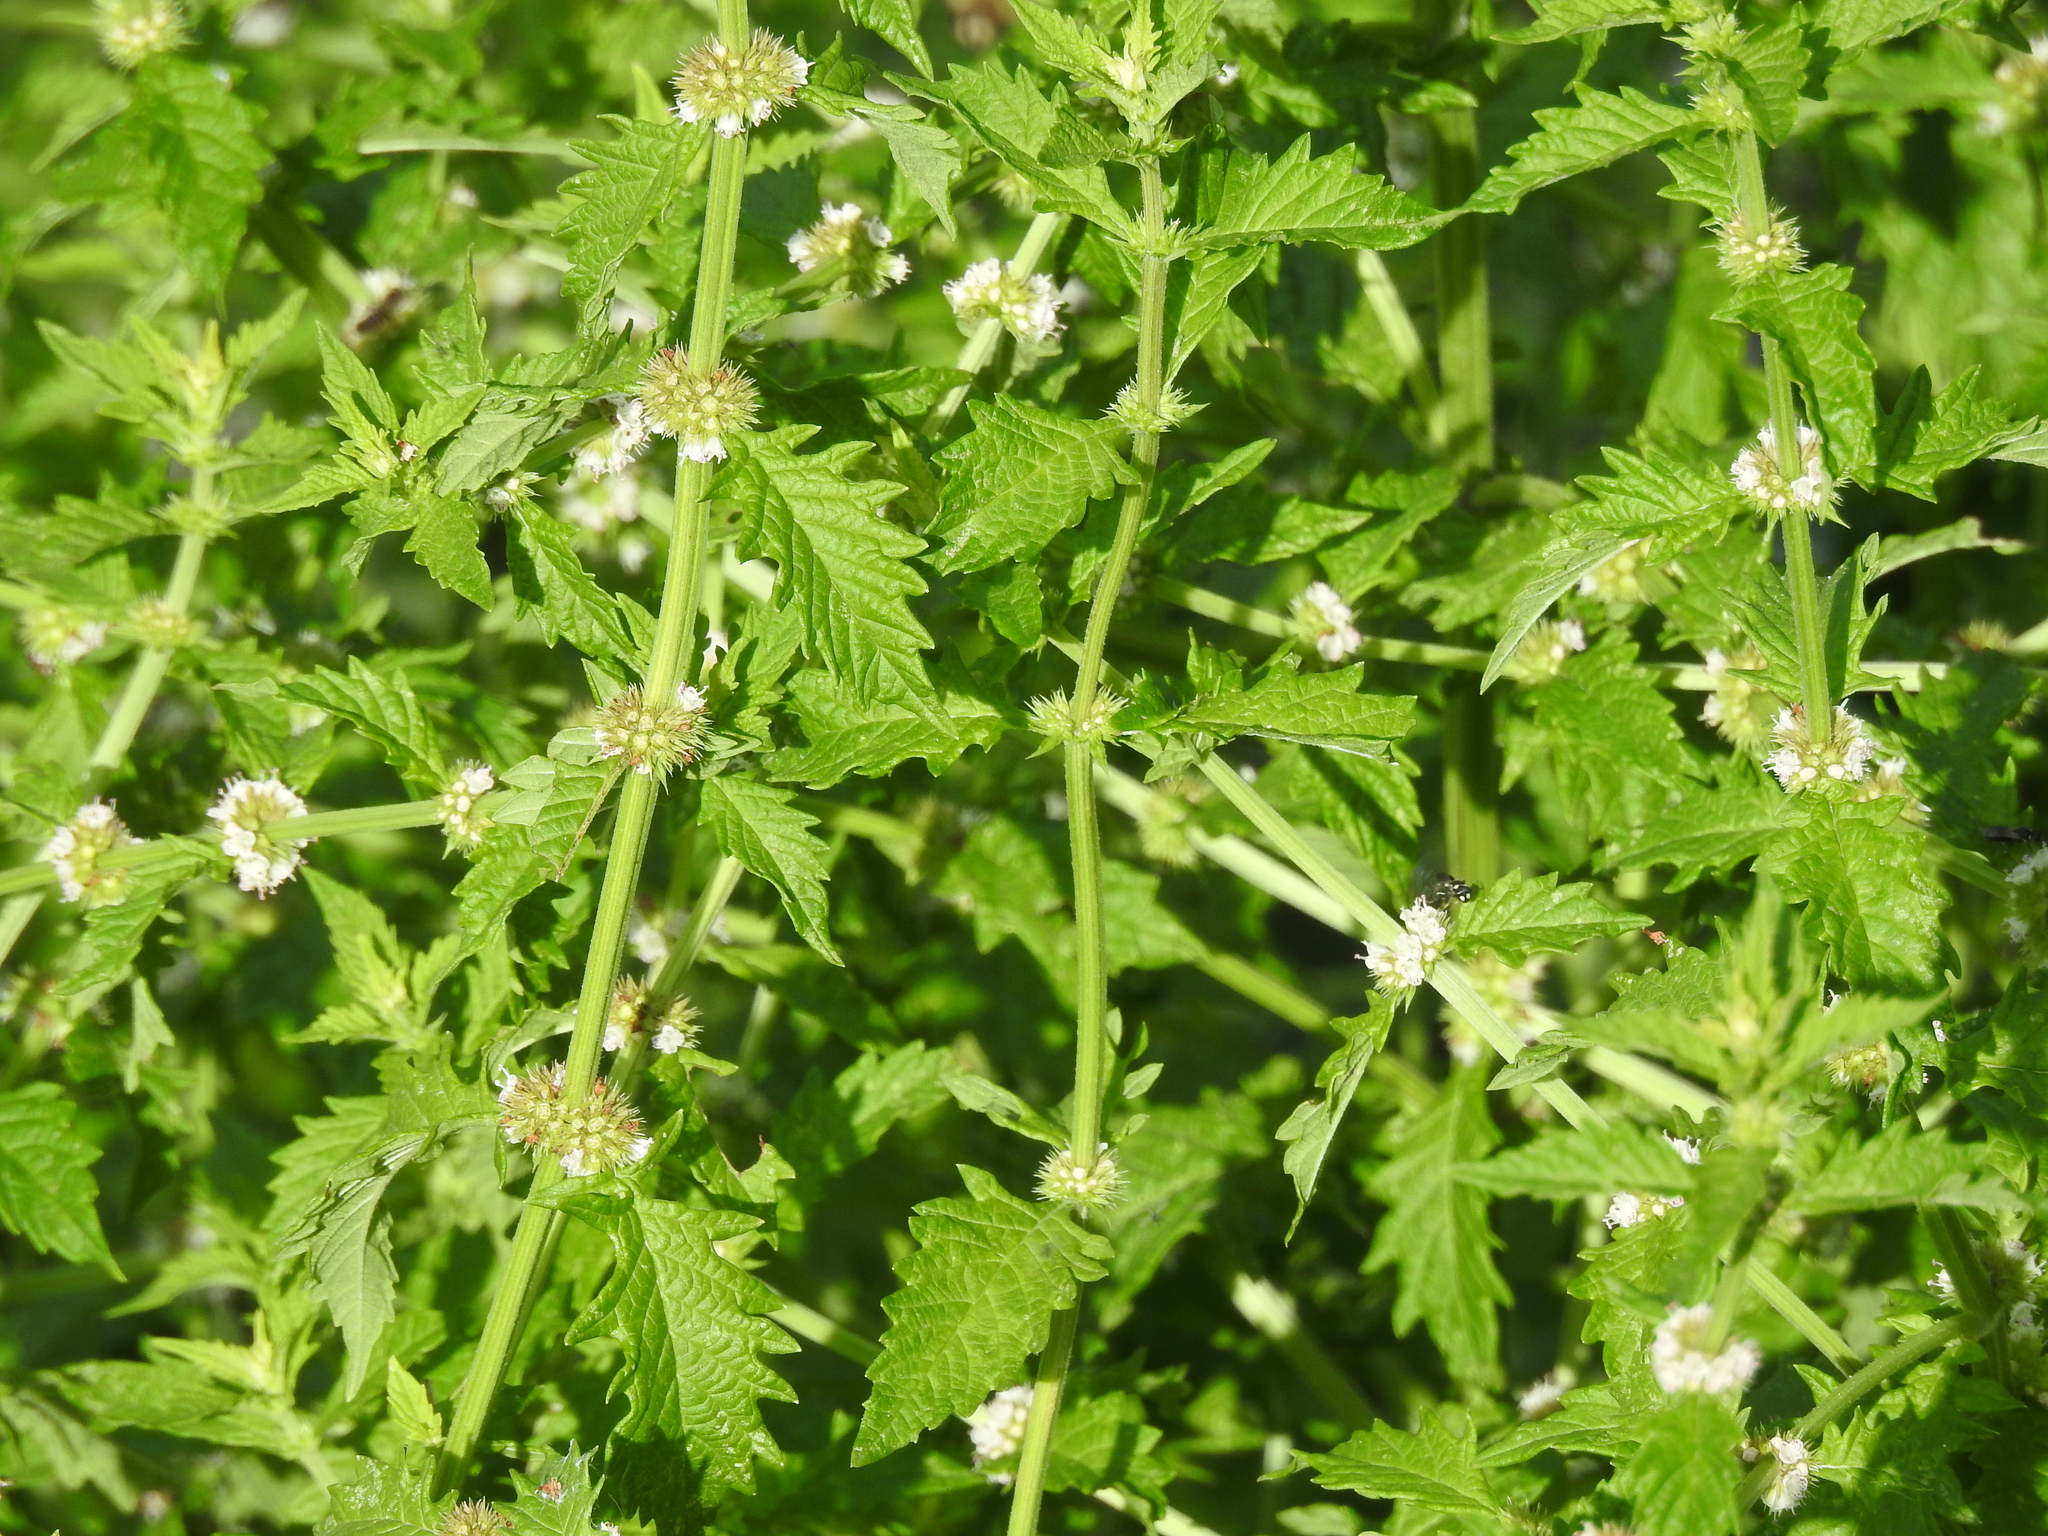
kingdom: Plantae
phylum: Tracheophyta
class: Magnoliopsida
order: Lamiales
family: Lamiaceae
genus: Lycopus
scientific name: Lycopus europaeus
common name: European bugleweed
